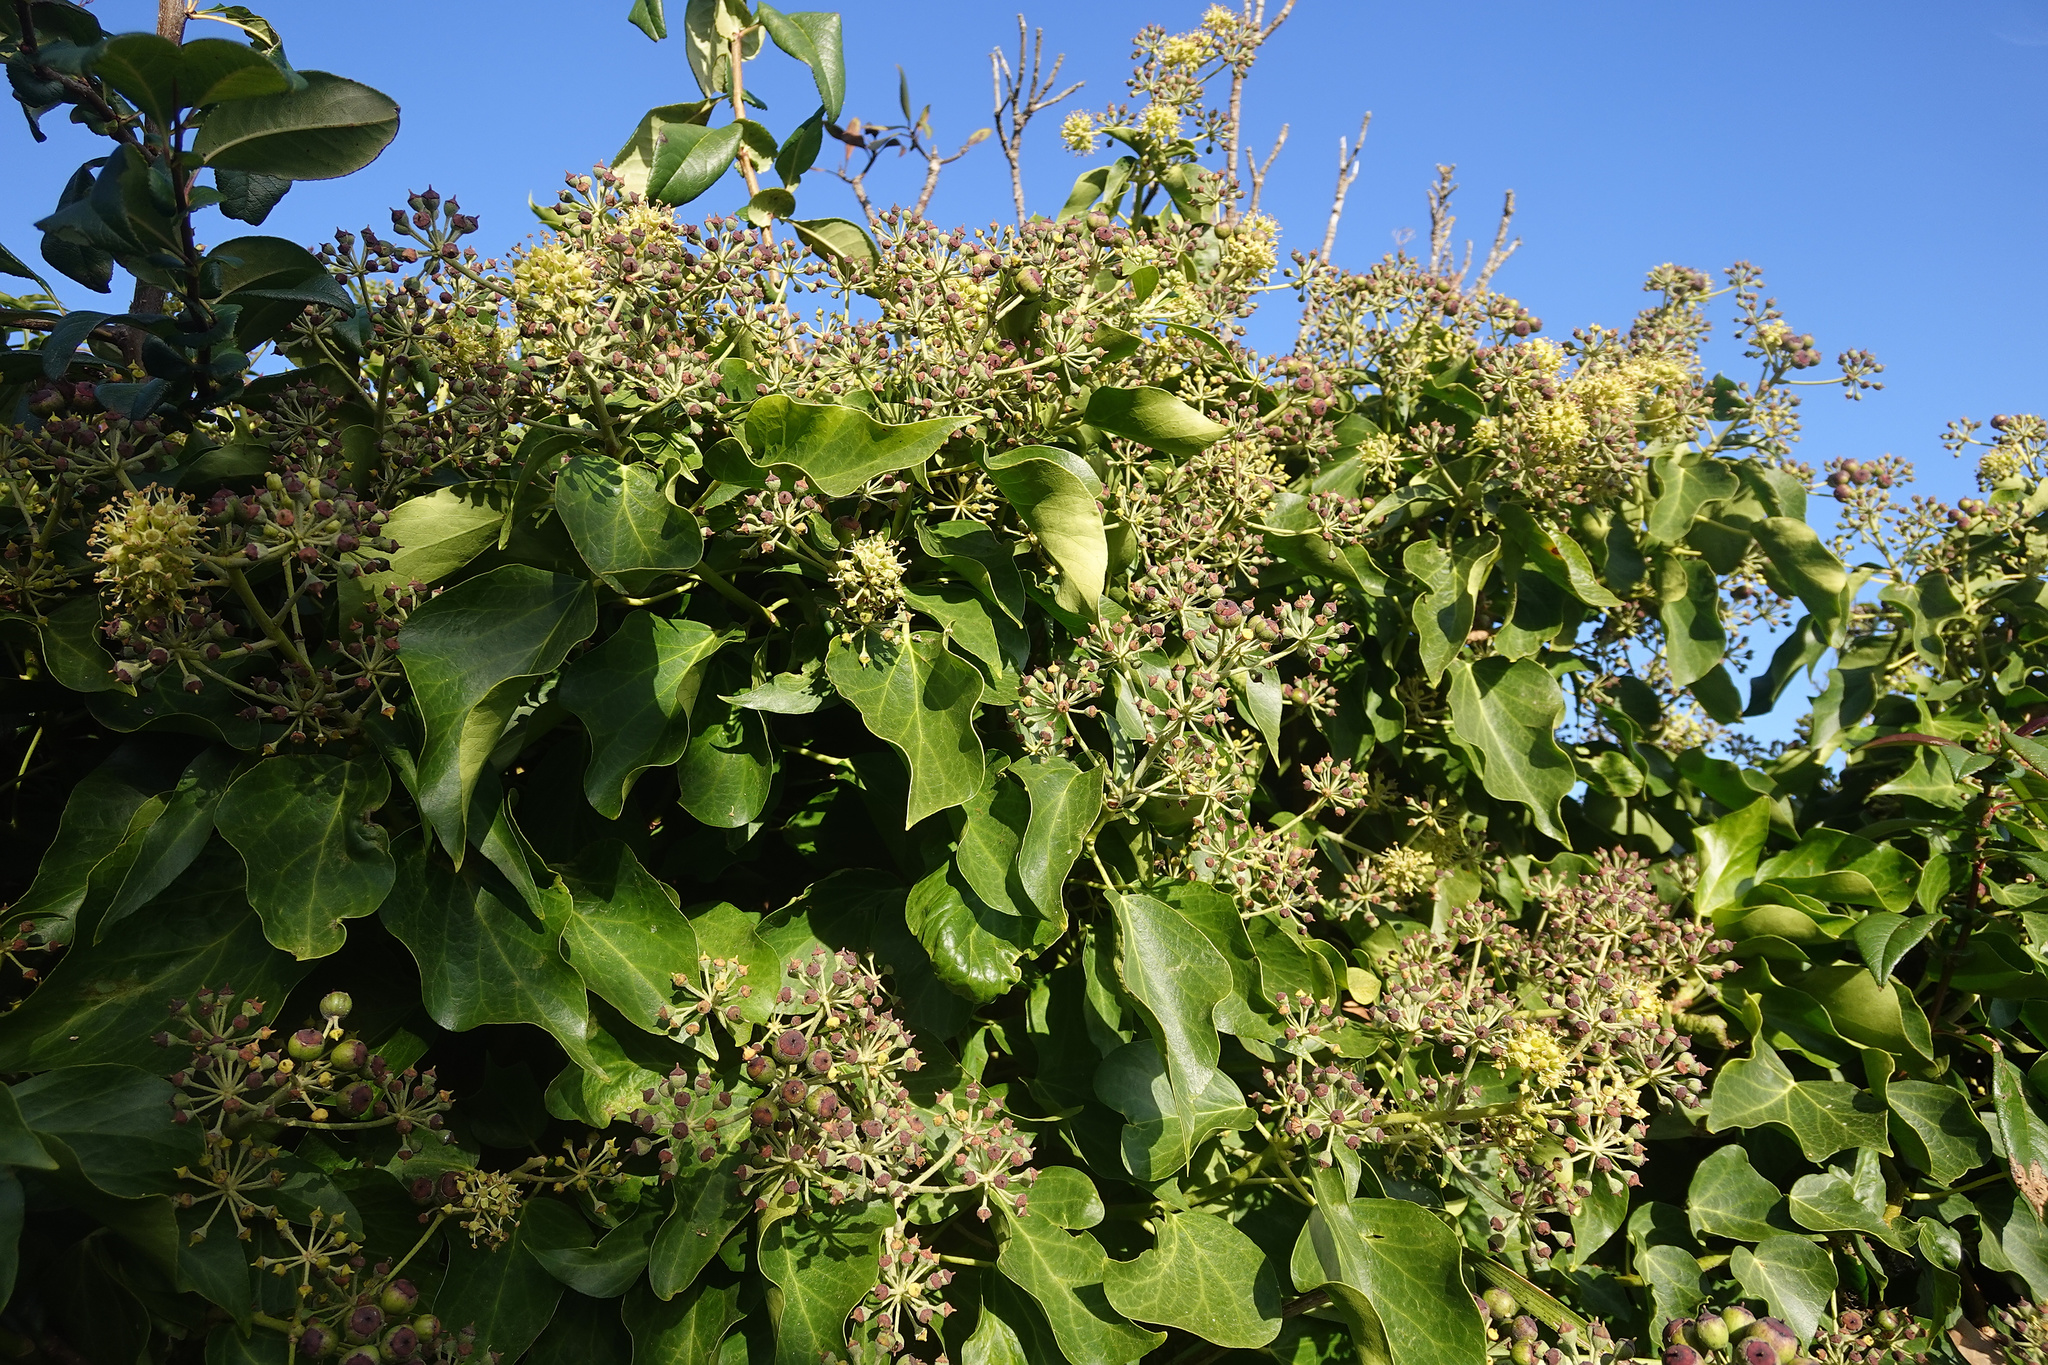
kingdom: Plantae
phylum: Tracheophyta
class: Magnoliopsida
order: Apiales
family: Araliaceae
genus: Hedera
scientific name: Hedera helix
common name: Ivy
